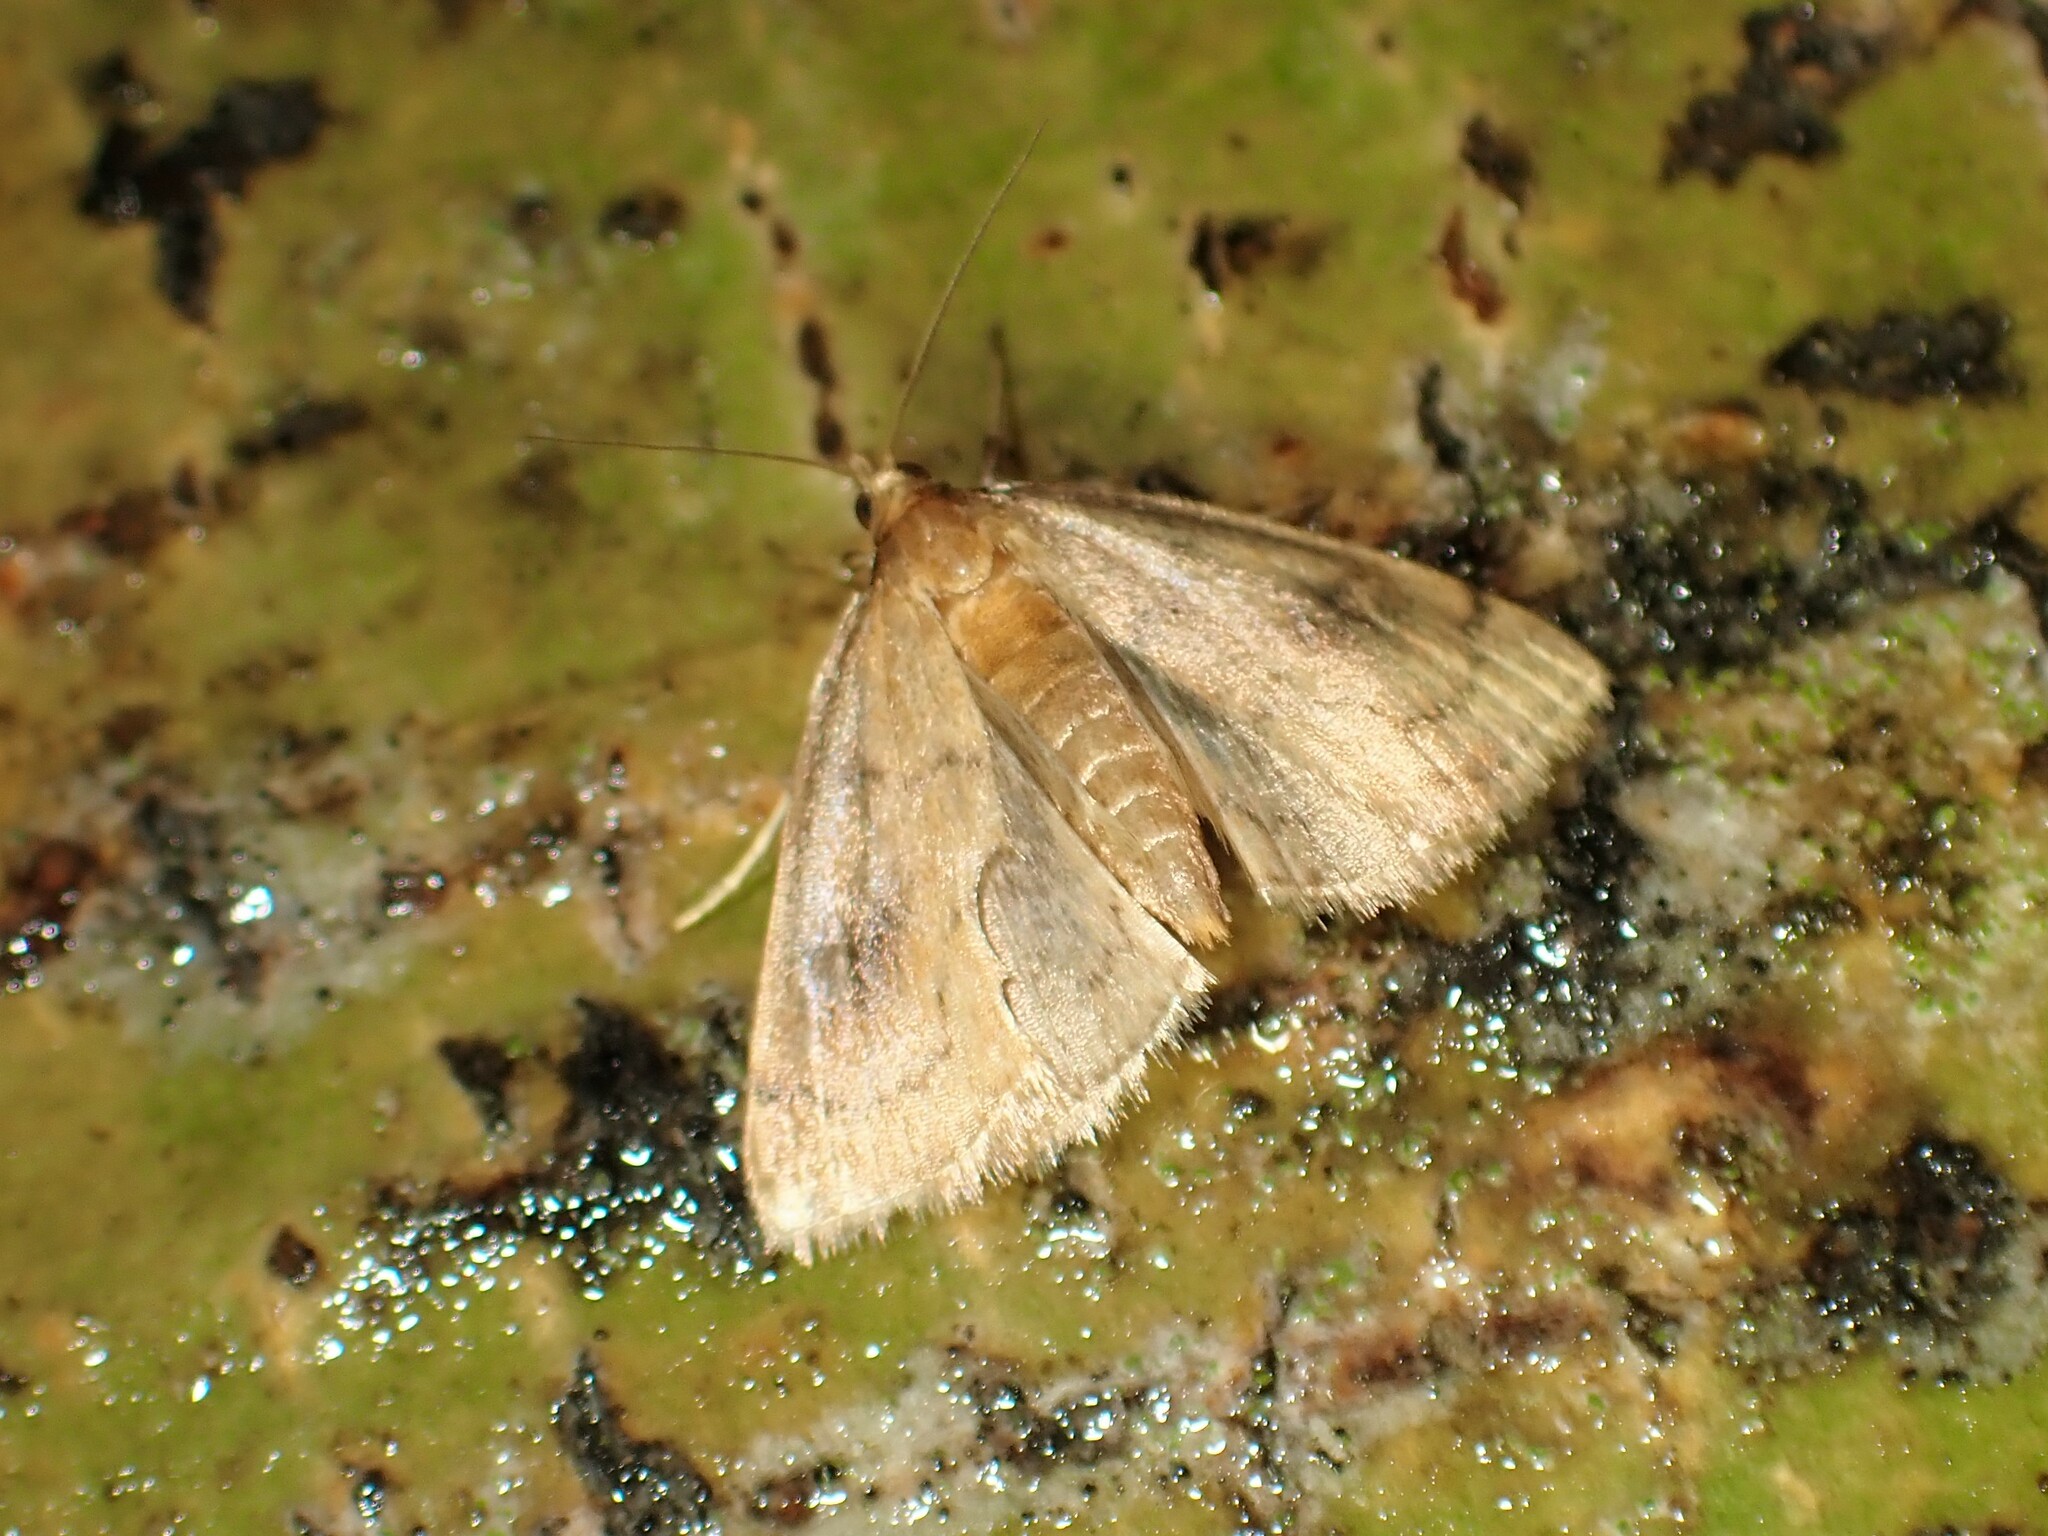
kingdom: Animalia
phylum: Arthropoda
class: Insecta
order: Lepidoptera
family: Crambidae
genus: Fumibotys
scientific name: Fumibotys fumalis
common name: Mint root borer moth
